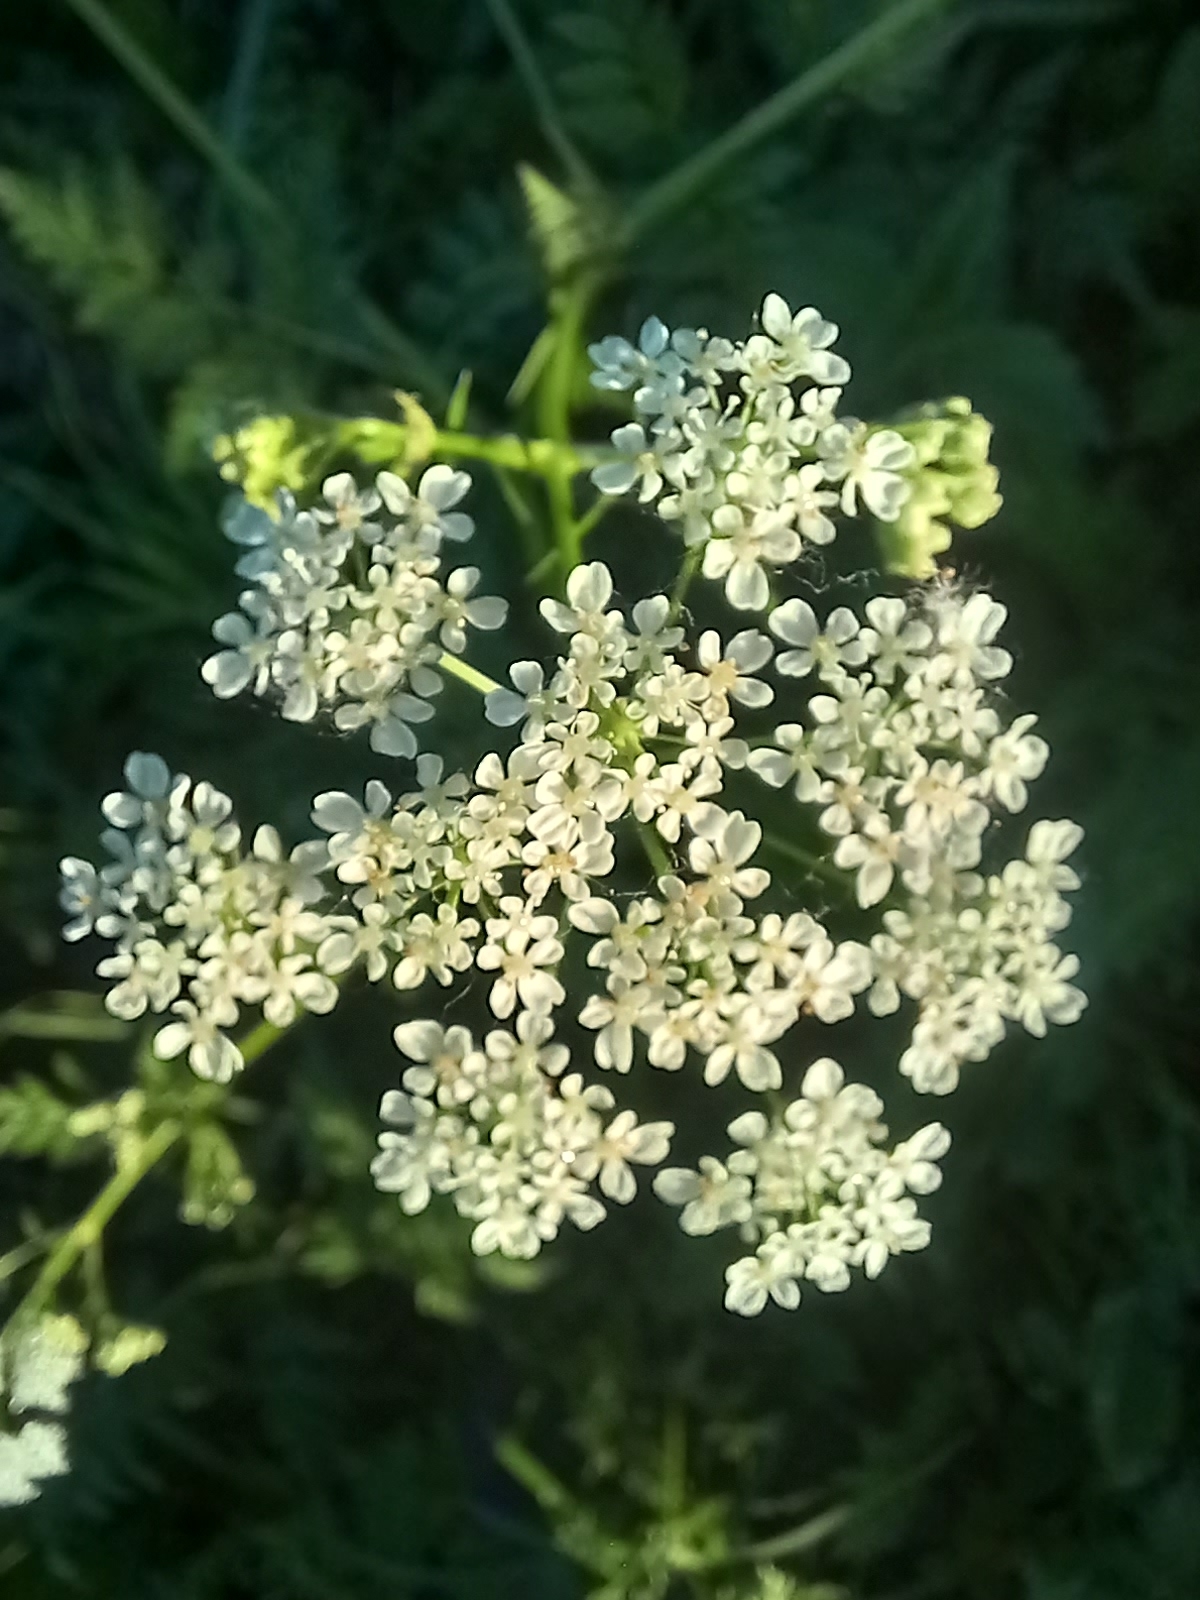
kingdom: Plantae
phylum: Tracheophyta
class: Magnoliopsida
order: Apiales
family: Apiaceae
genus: Anthriscus
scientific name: Anthriscus sylvestris
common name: Cow parsley
